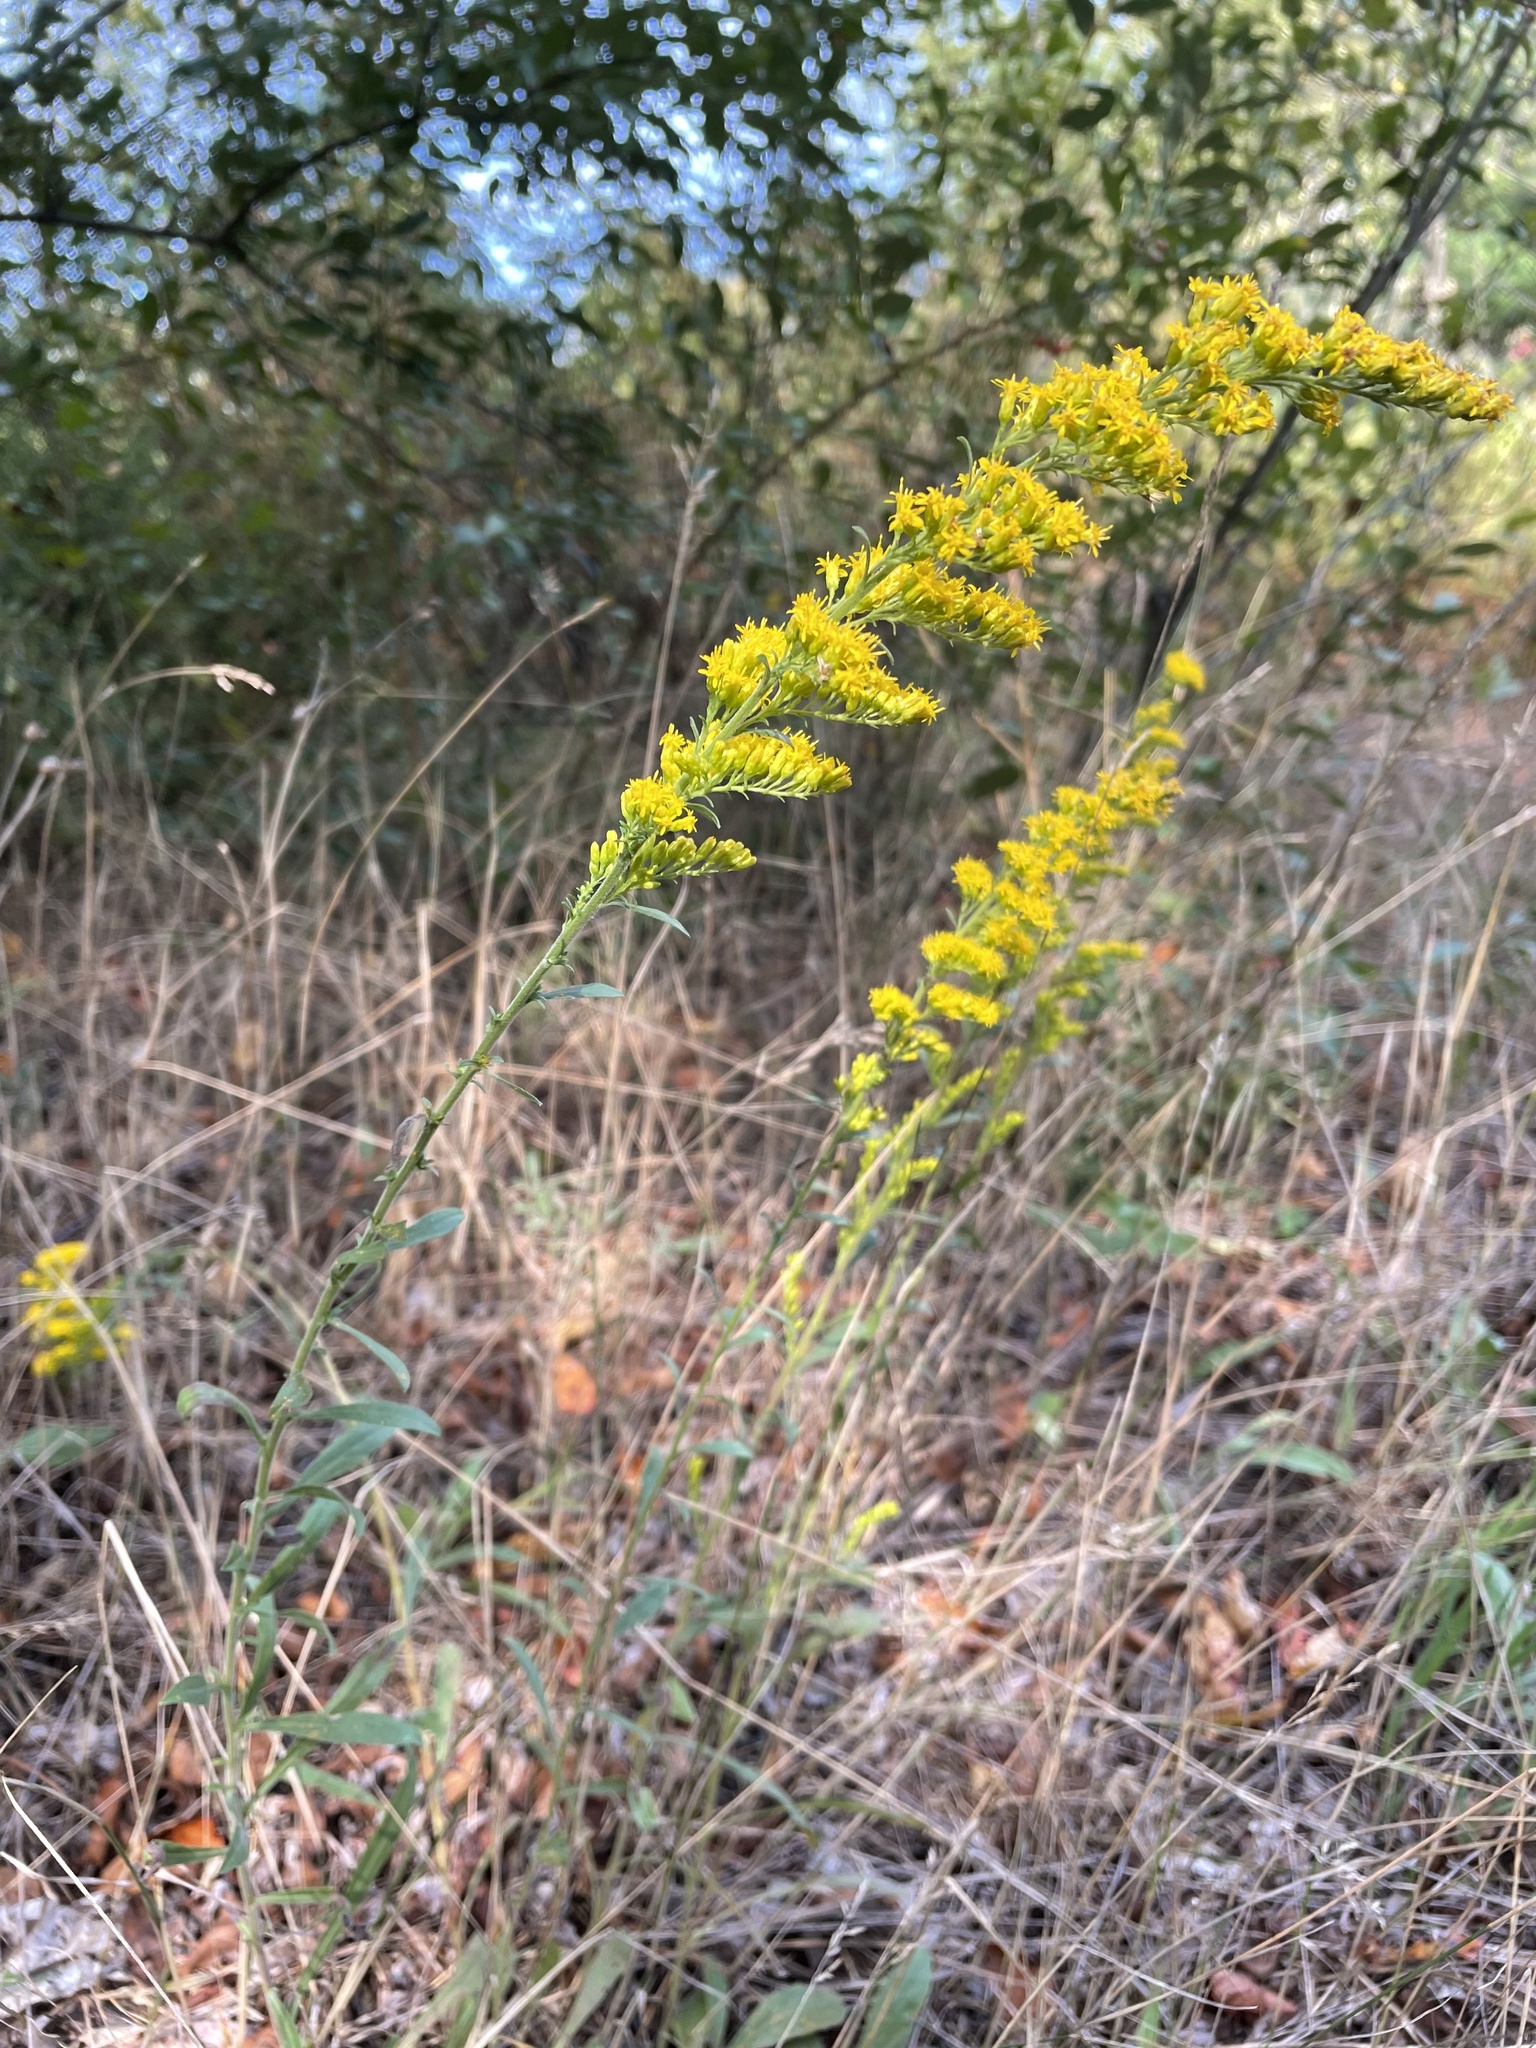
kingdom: Plantae
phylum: Tracheophyta
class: Magnoliopsida
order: Asterales
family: Asteraceae
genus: Solidago
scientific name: Solidago nemoralis
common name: Grey goldenrod
